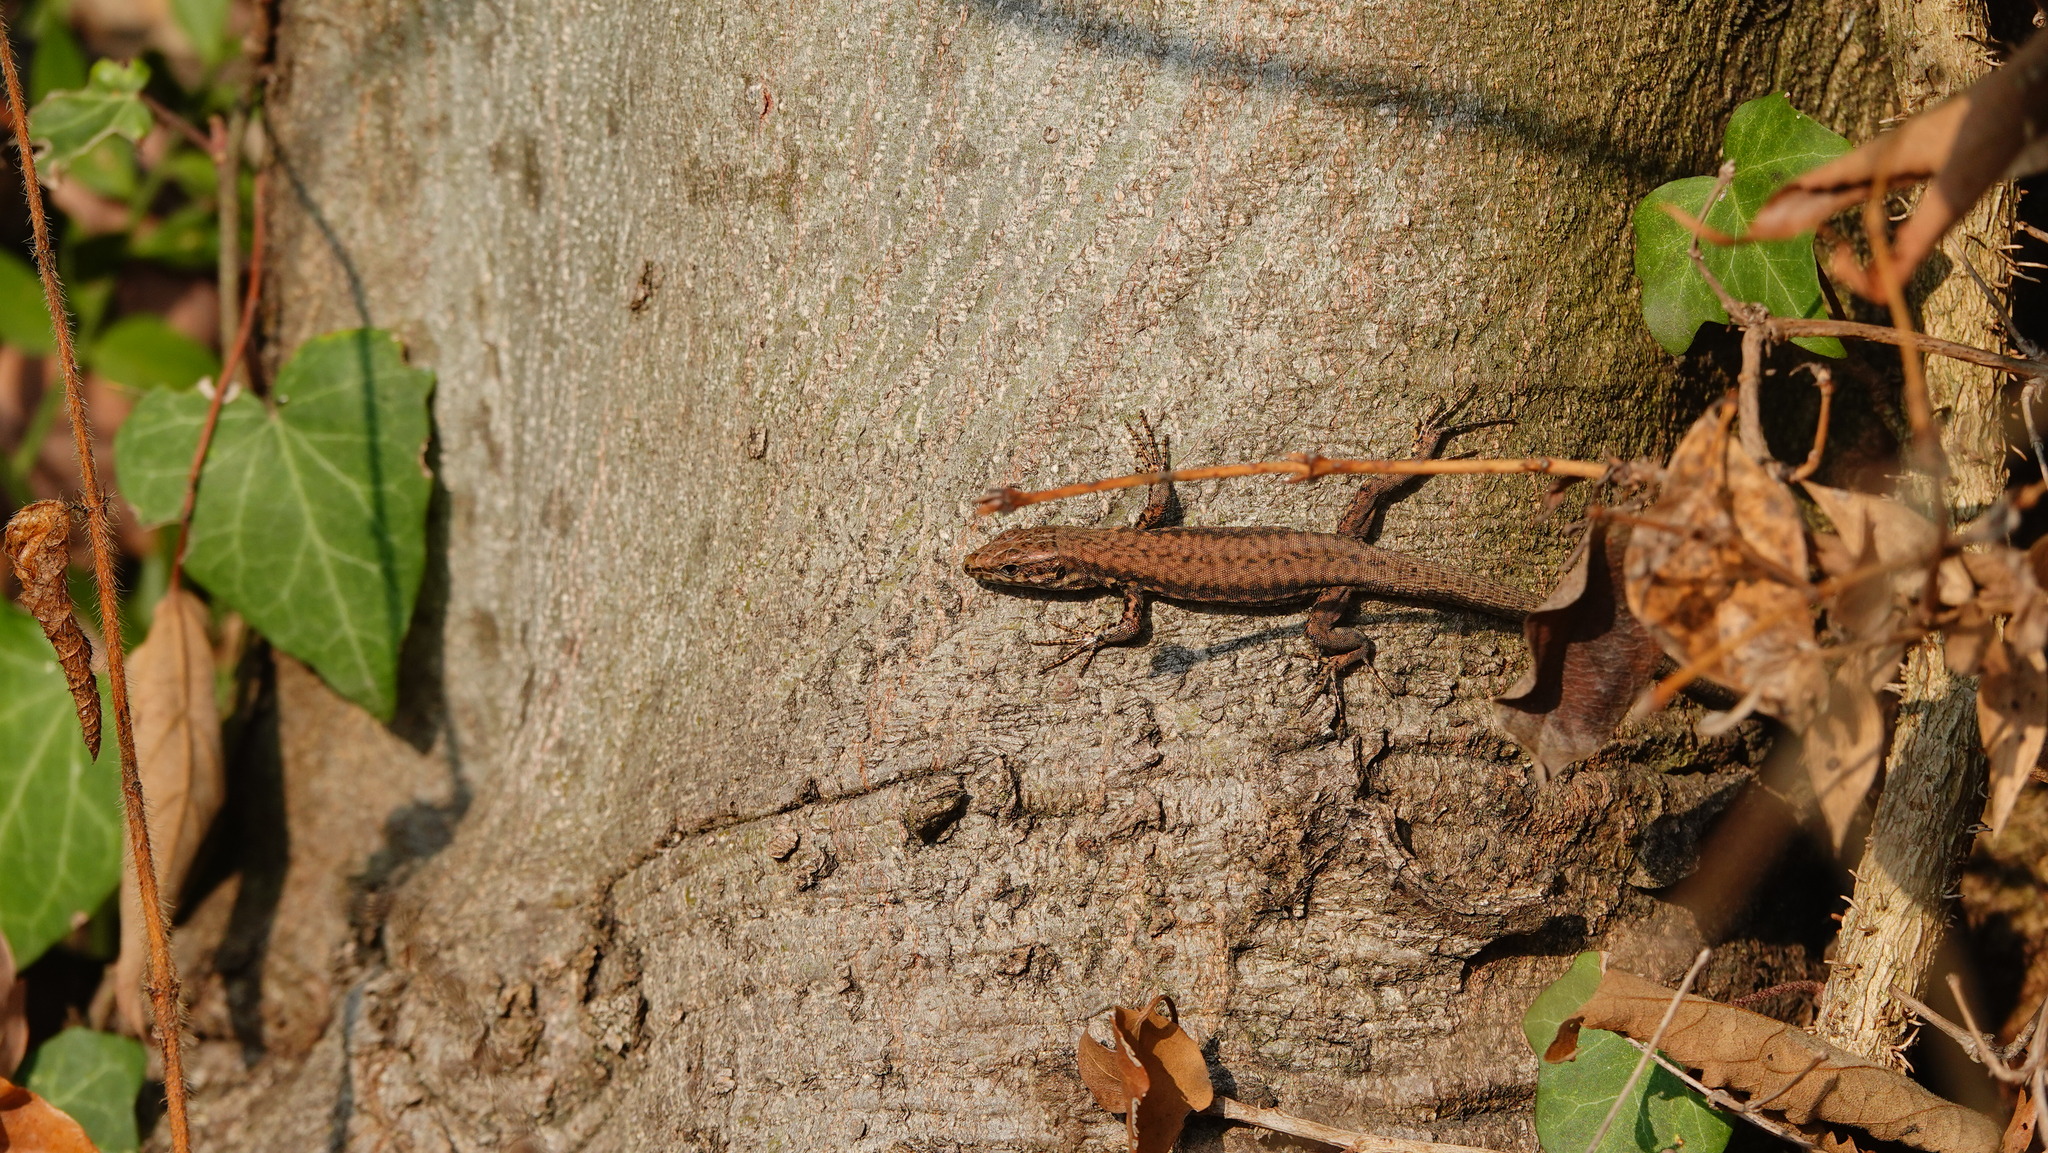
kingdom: Animalia
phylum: Chordata
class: Squamata
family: Lacertidae
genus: Podarcis
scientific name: Podarcis muralis
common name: Common wall lizard
